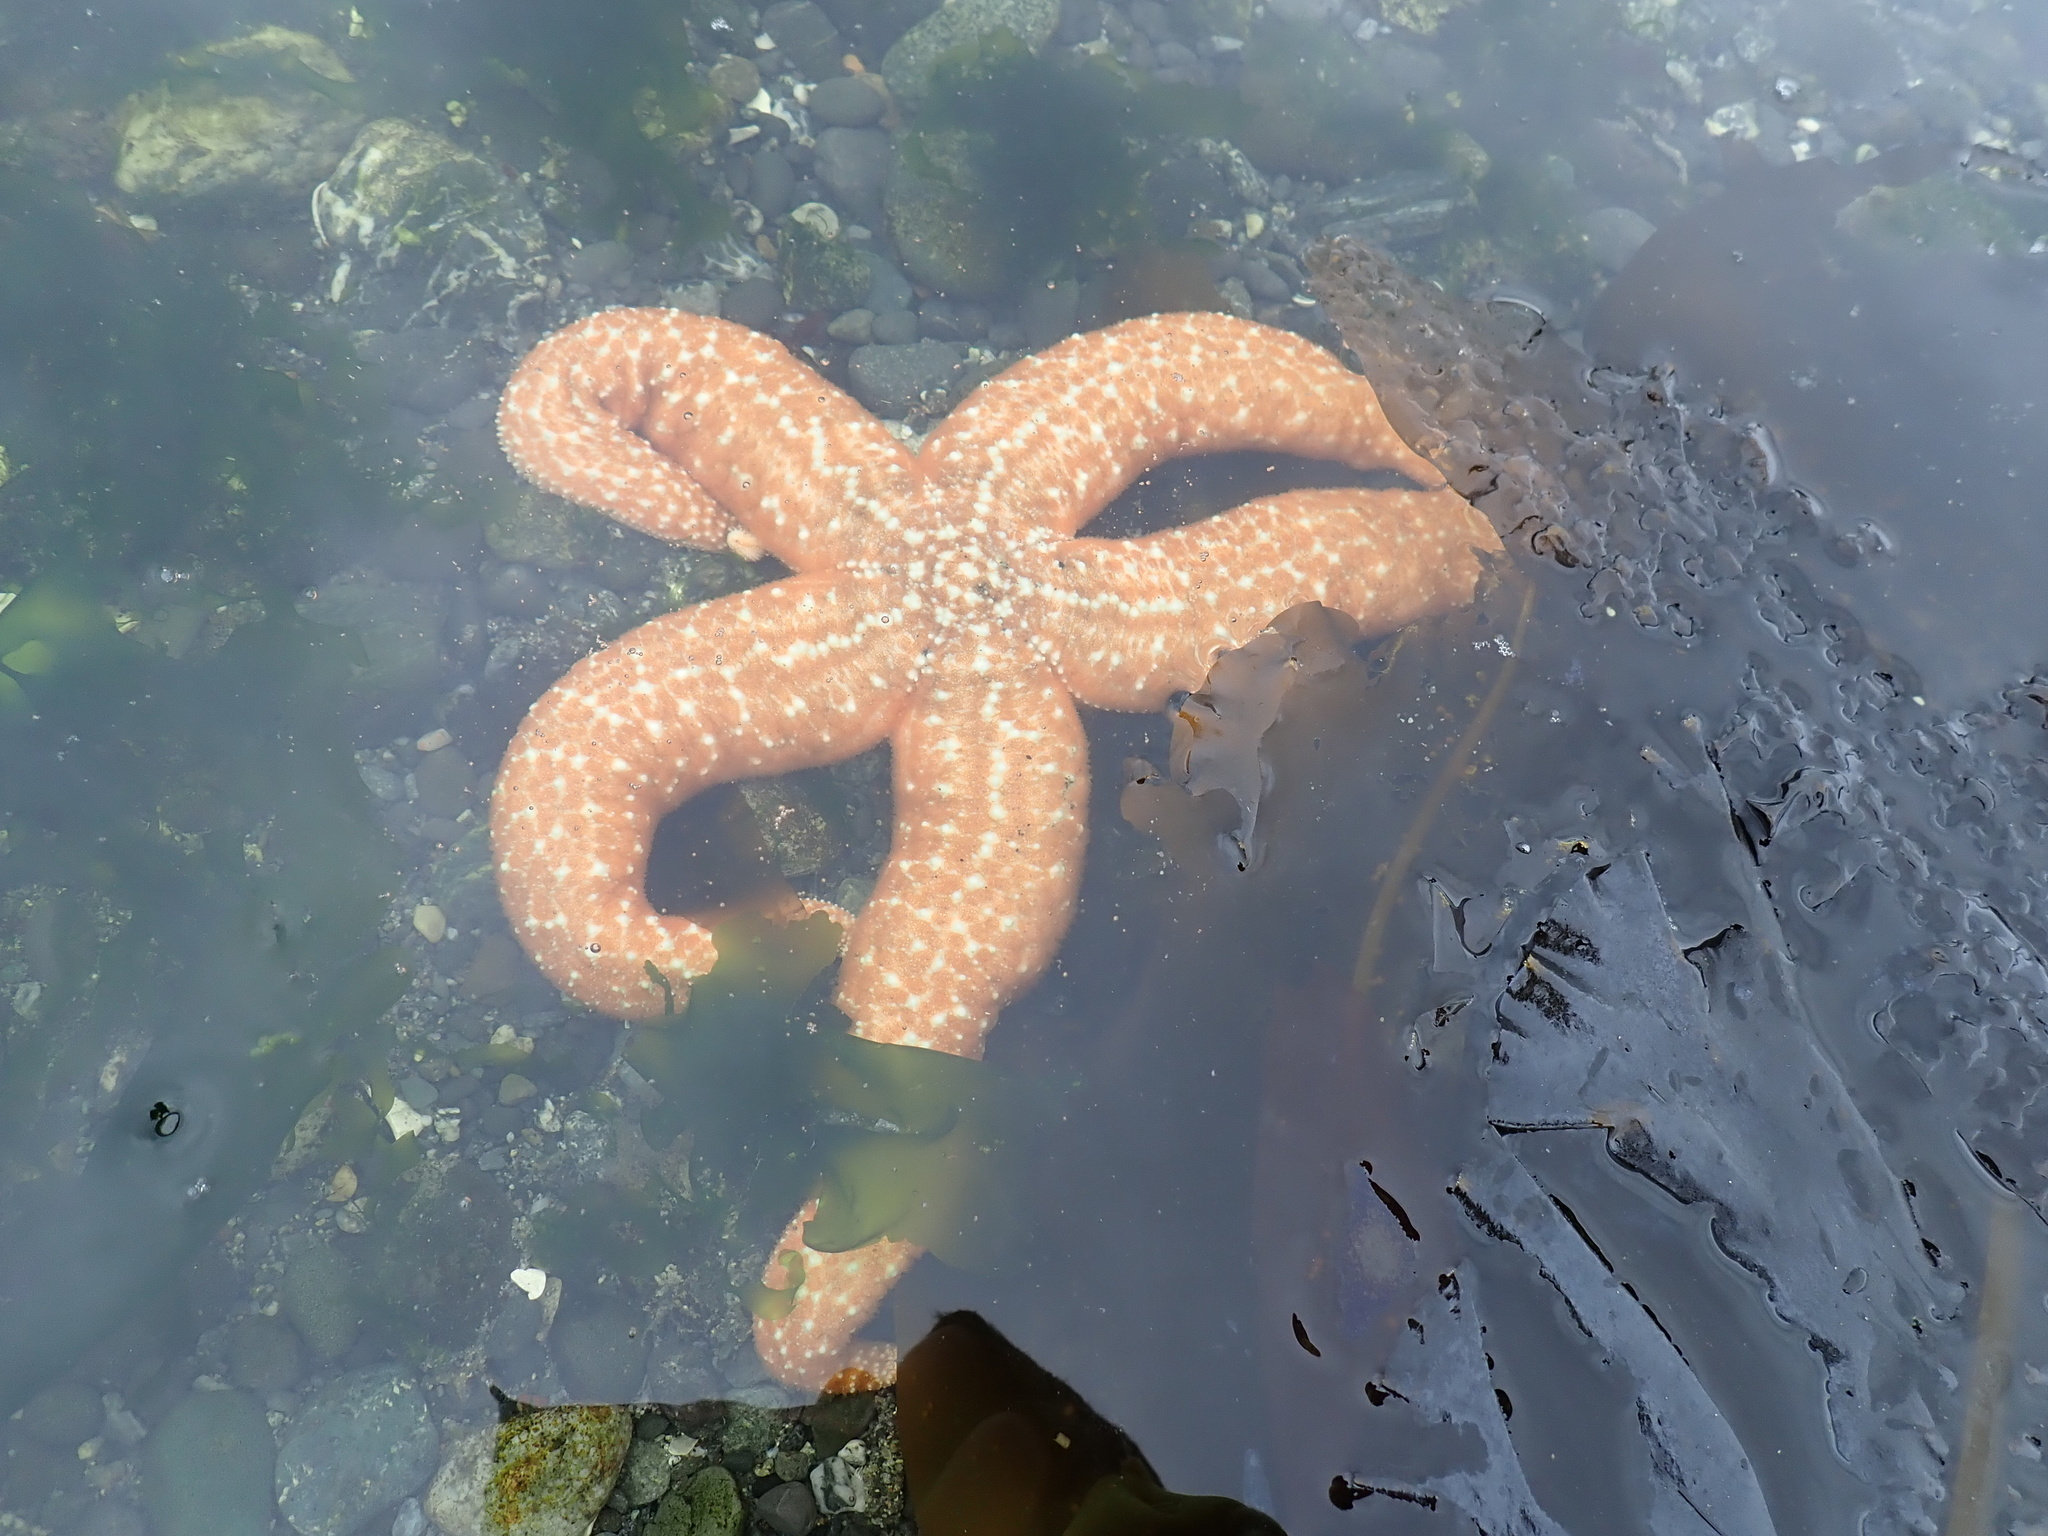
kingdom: Animalia
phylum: Echinodermata
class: Asteroidea
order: Forcipulatida
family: Asteriidae
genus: Evasterias
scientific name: Evasterias troschelii
